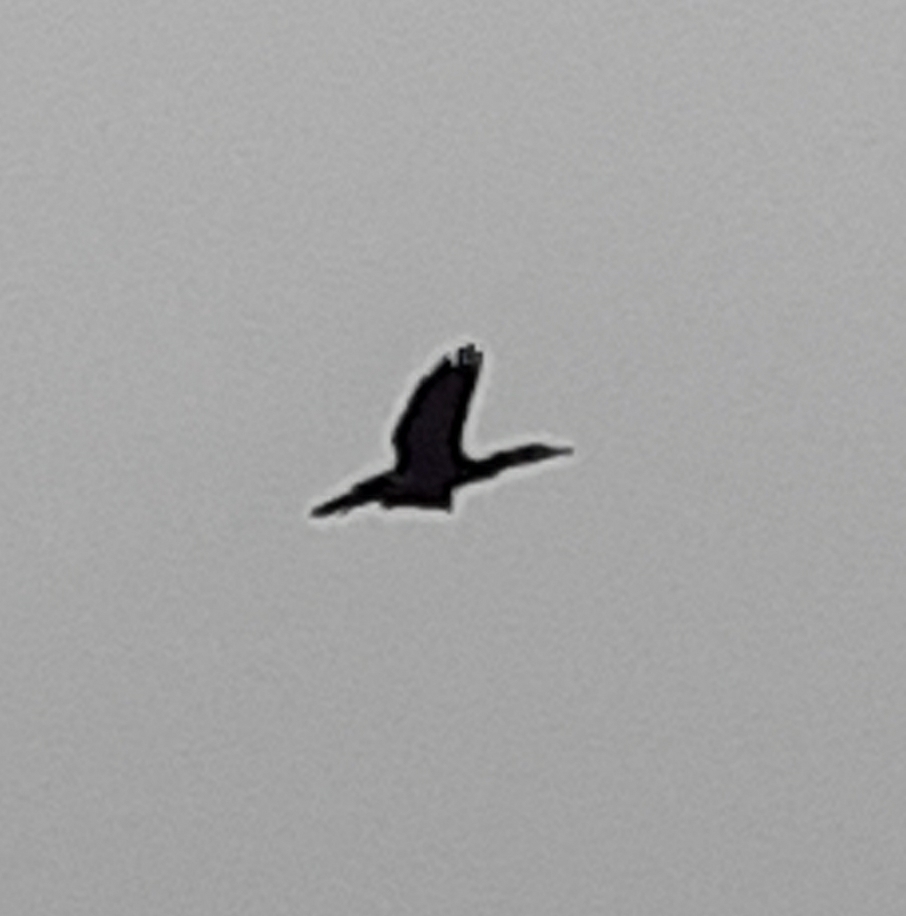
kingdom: Animalia
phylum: Chordata
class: Aves
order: Suliformes
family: Phalacrocoracidae
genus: Phalacrocorax
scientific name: Phalacrocorax carbo
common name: Great cormorant
